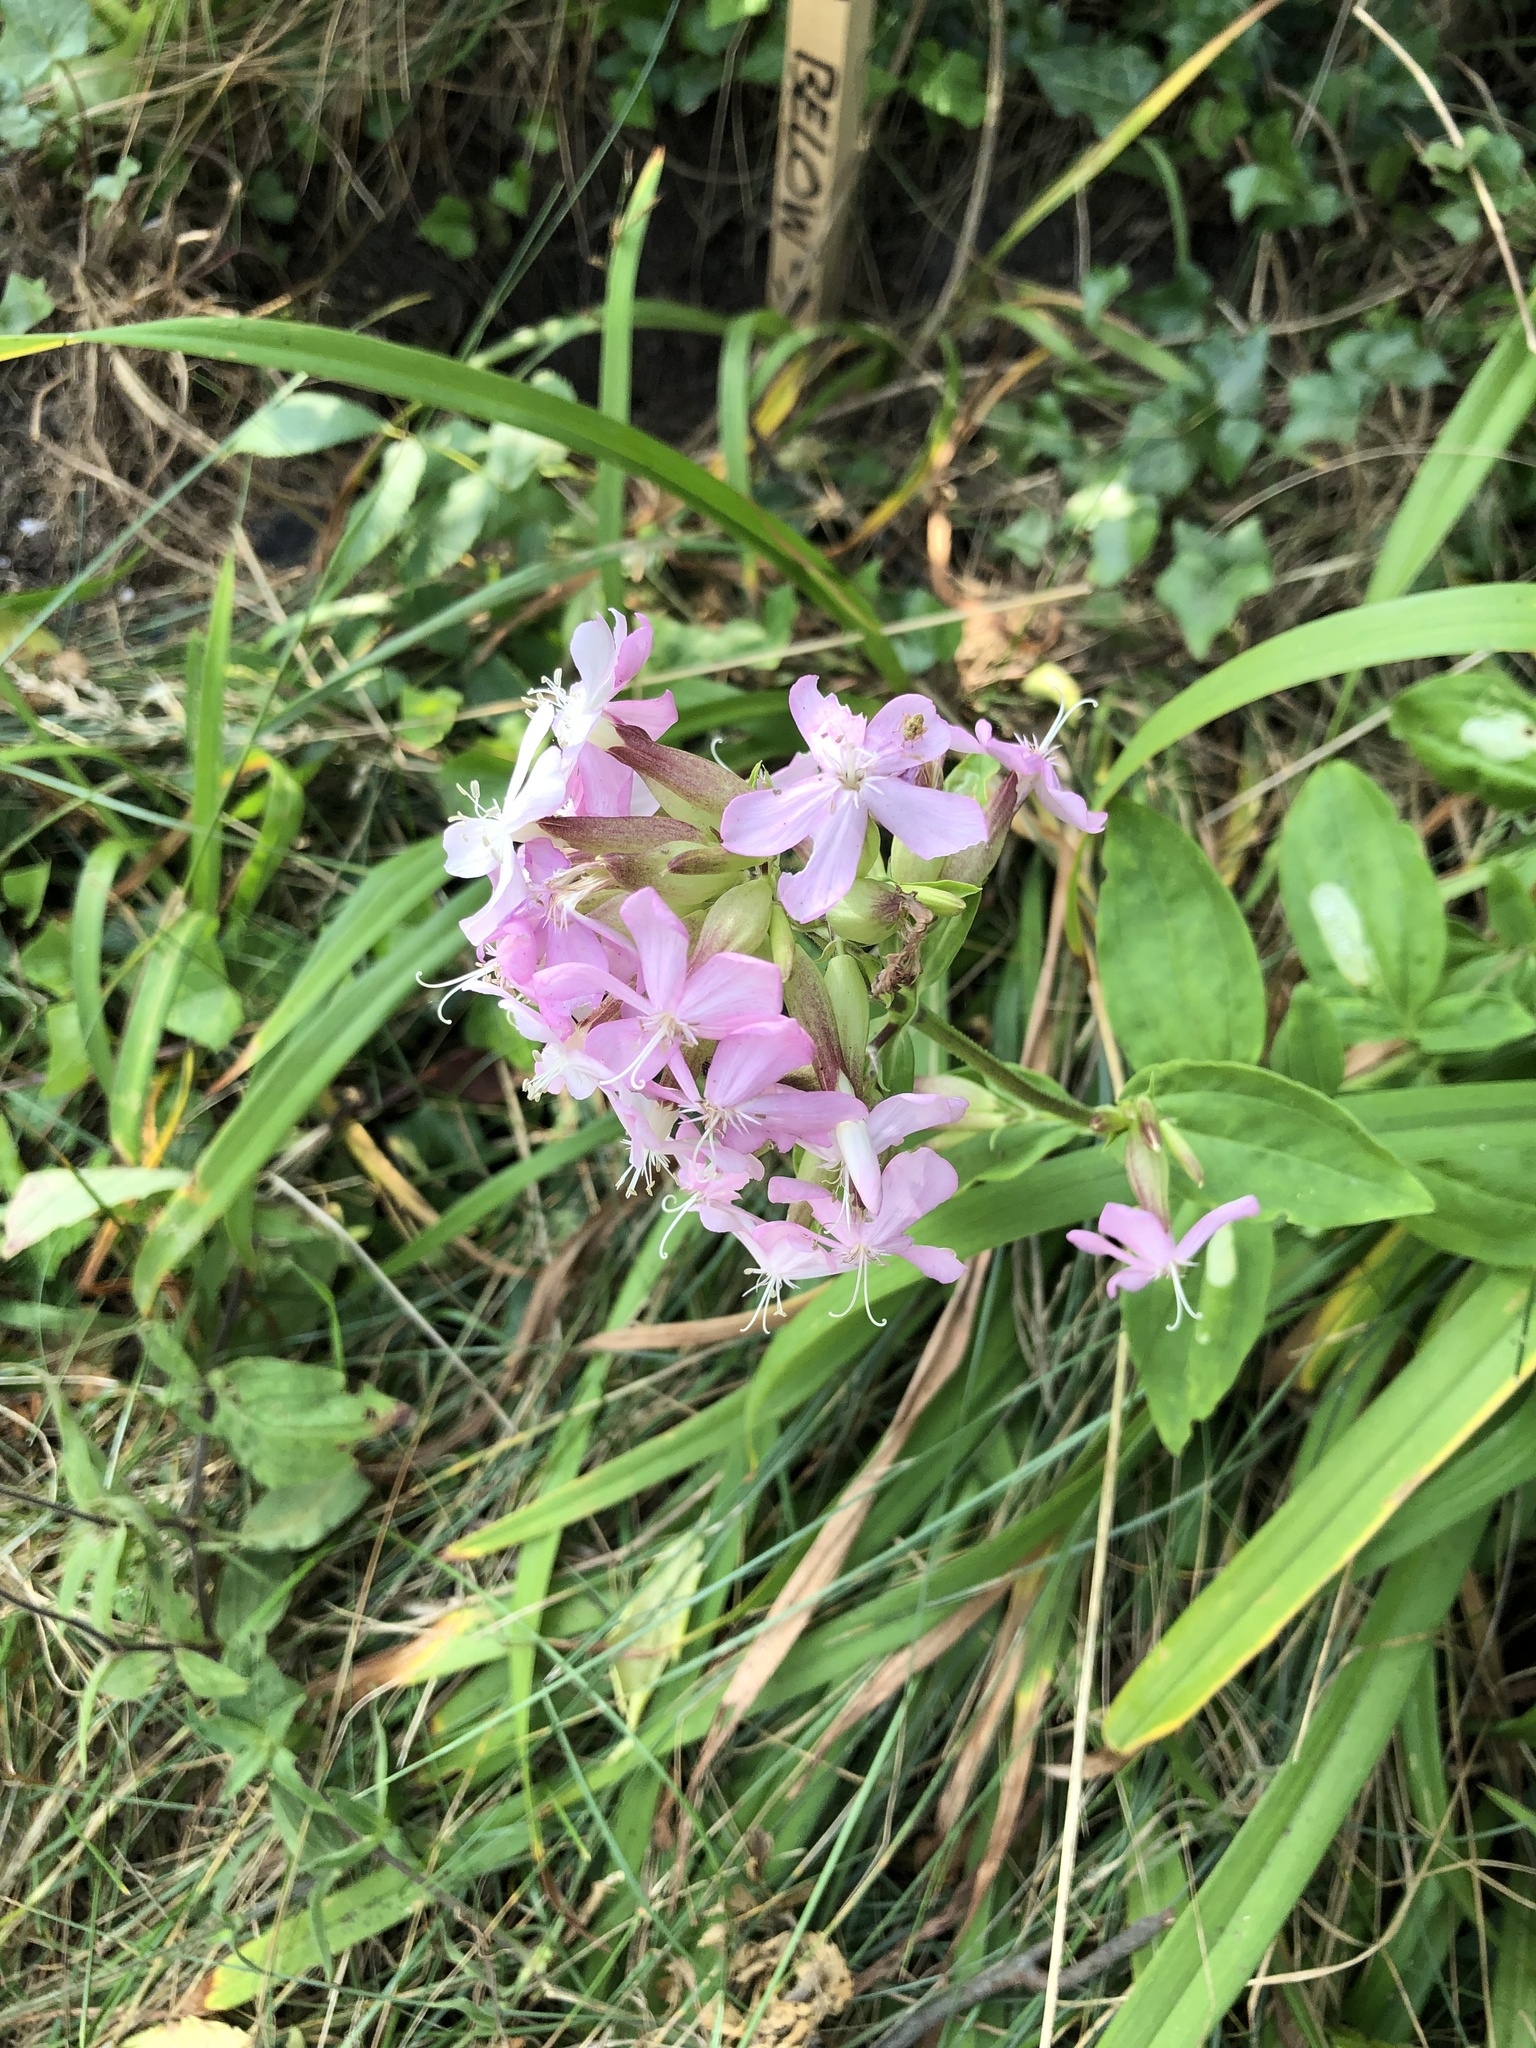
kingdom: Plantae
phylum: Tracheophyta
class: Magnoliopsida
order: Caryophyllales
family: Caryophyllaceae
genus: Saponaria
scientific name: Saponaria officinalis
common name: Soapwort
